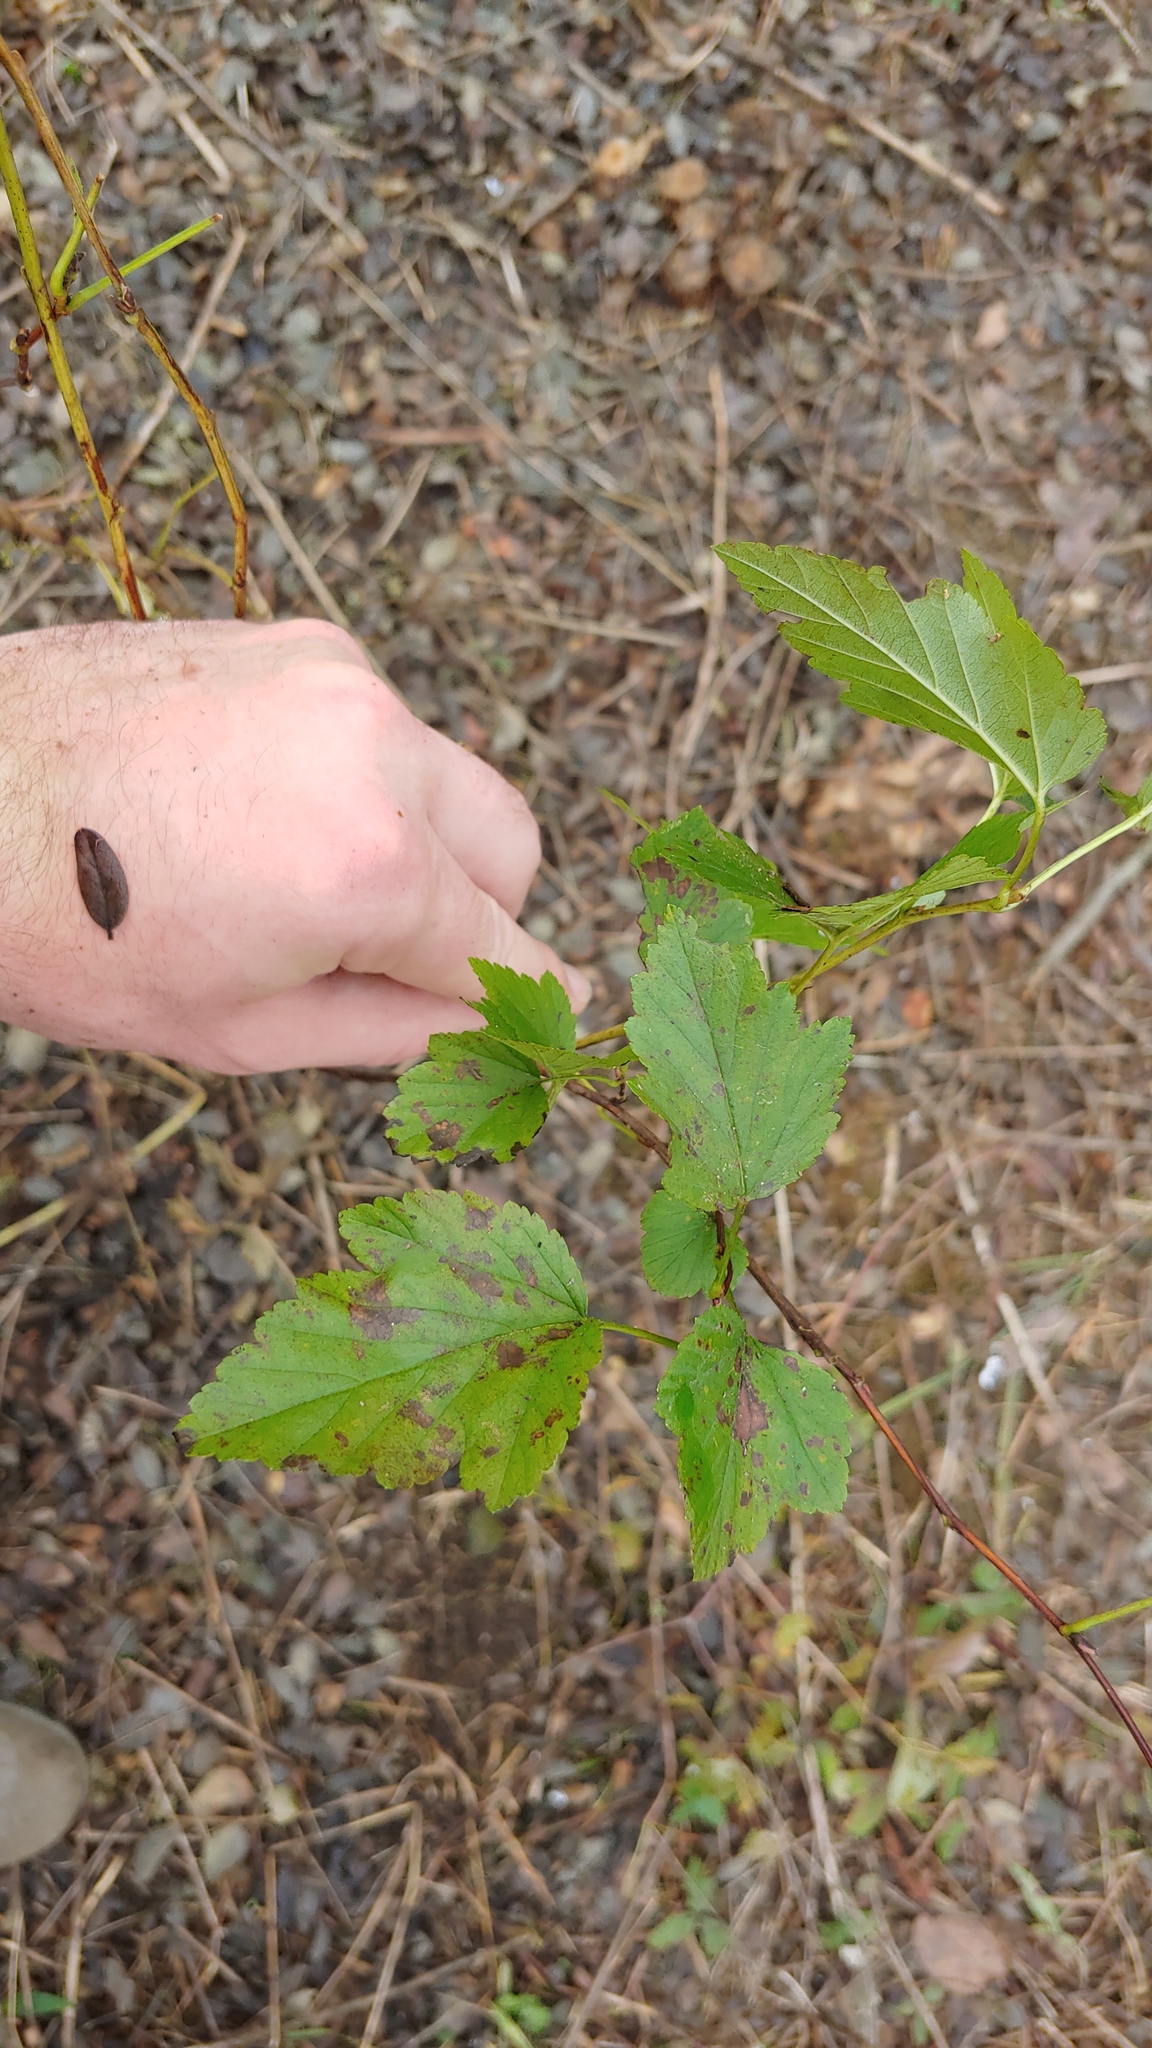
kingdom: Plantae
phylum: Tracheophyta
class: Magnoliopsida
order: Rosales
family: Rosaceae
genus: Physocarpus
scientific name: Physocarpus opulifolius
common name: Ninebark
